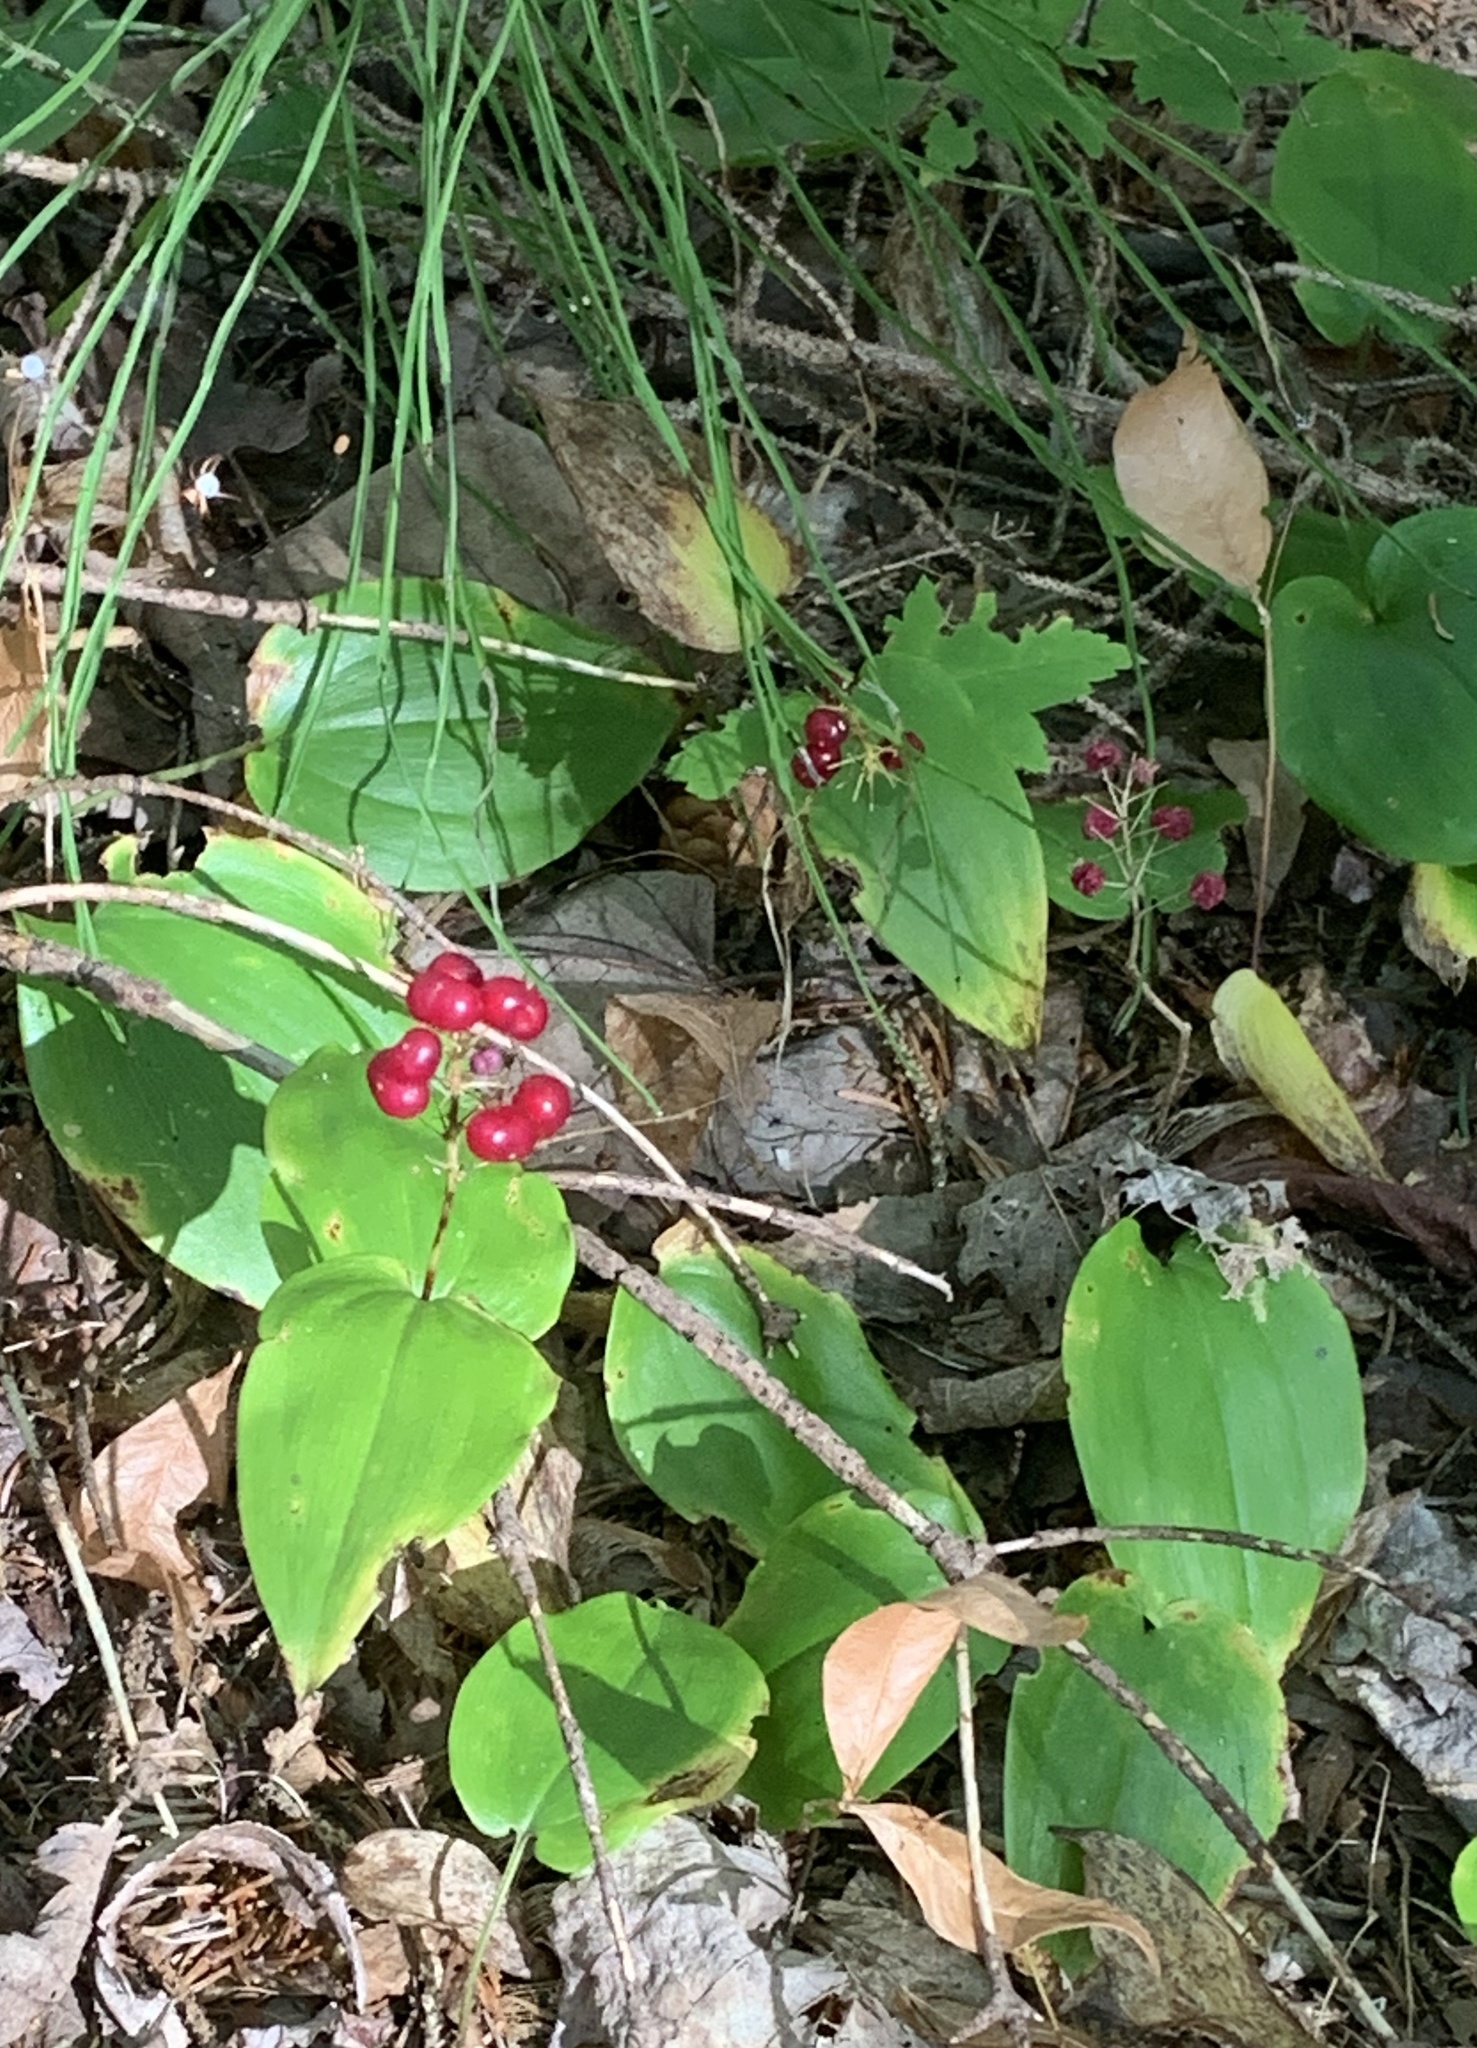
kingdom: Plantae
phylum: Tracheophyta
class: Liliopsida
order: Asparagales
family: Asparagaceae
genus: Maianthemum
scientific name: Maianthemum canadense
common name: False lily-of-the-valley
